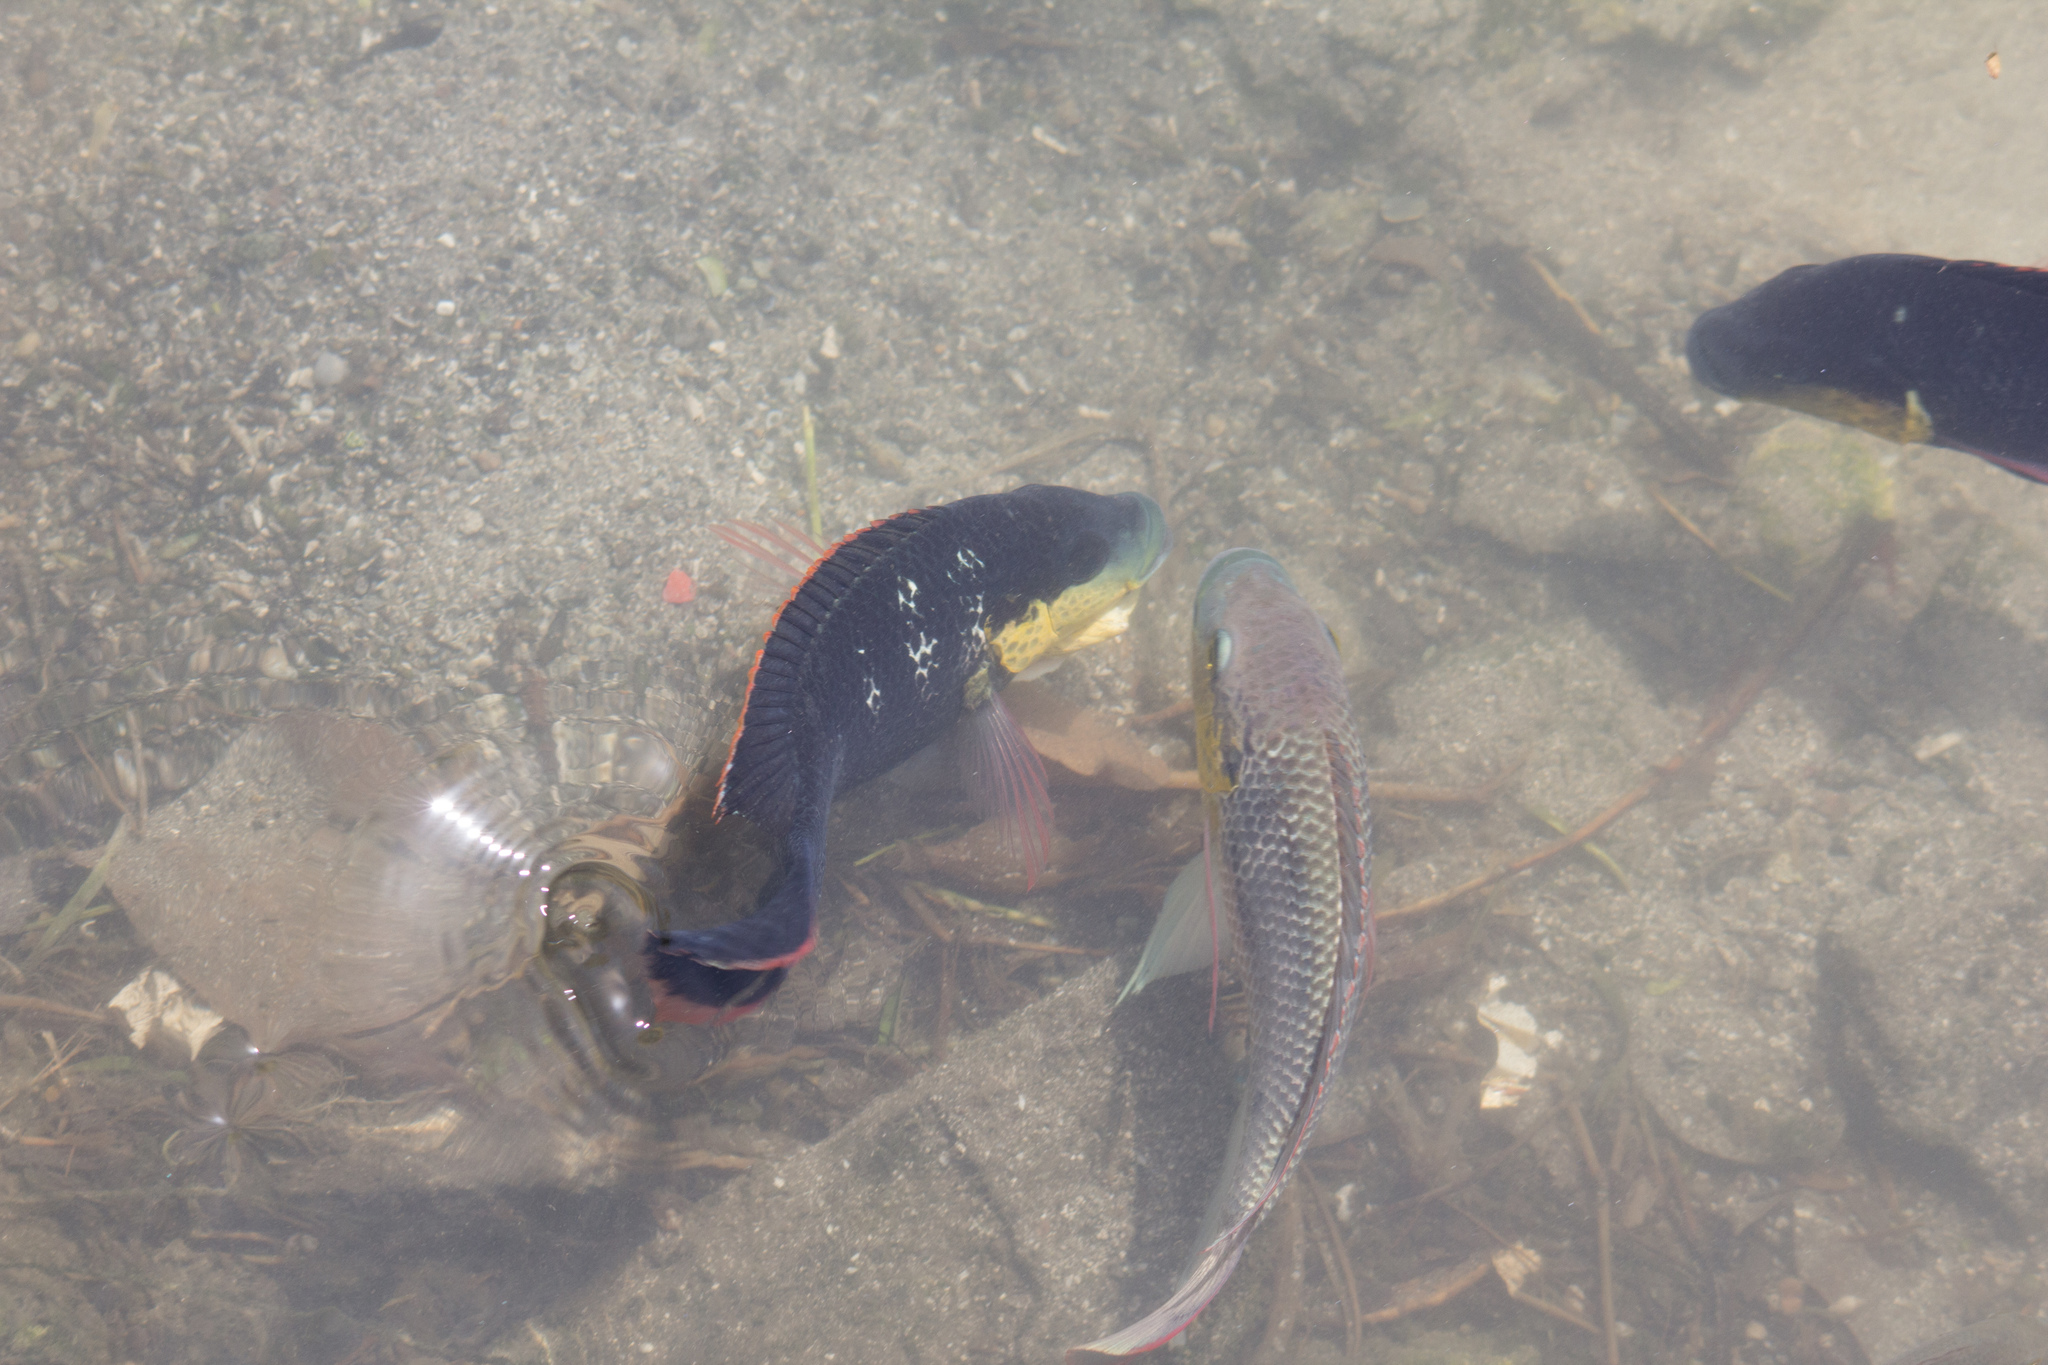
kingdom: Animalia
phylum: Chordata
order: Perciformes
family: Cichlidae
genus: Oreochromis
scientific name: Oreochromis mossambicus
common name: Mozambique tilapia
